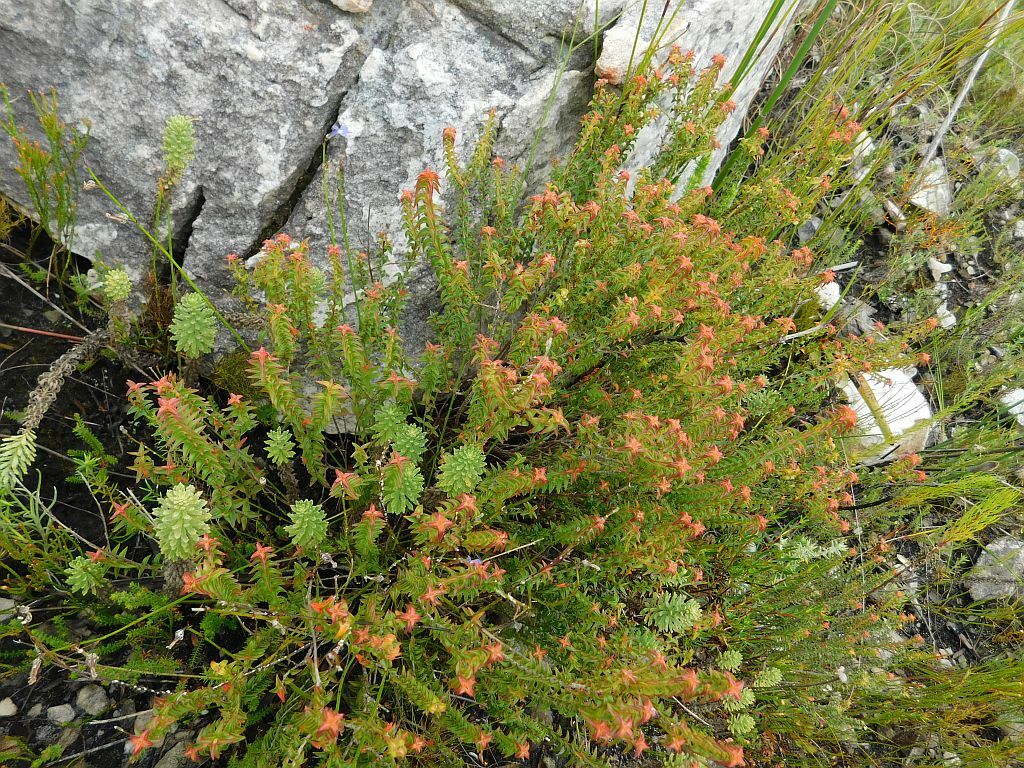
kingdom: Plantae
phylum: Tracheophyta
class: Magnoliopsida
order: Myrtales
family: Penaeaceae
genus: Penaea
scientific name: Penaea mucronata
